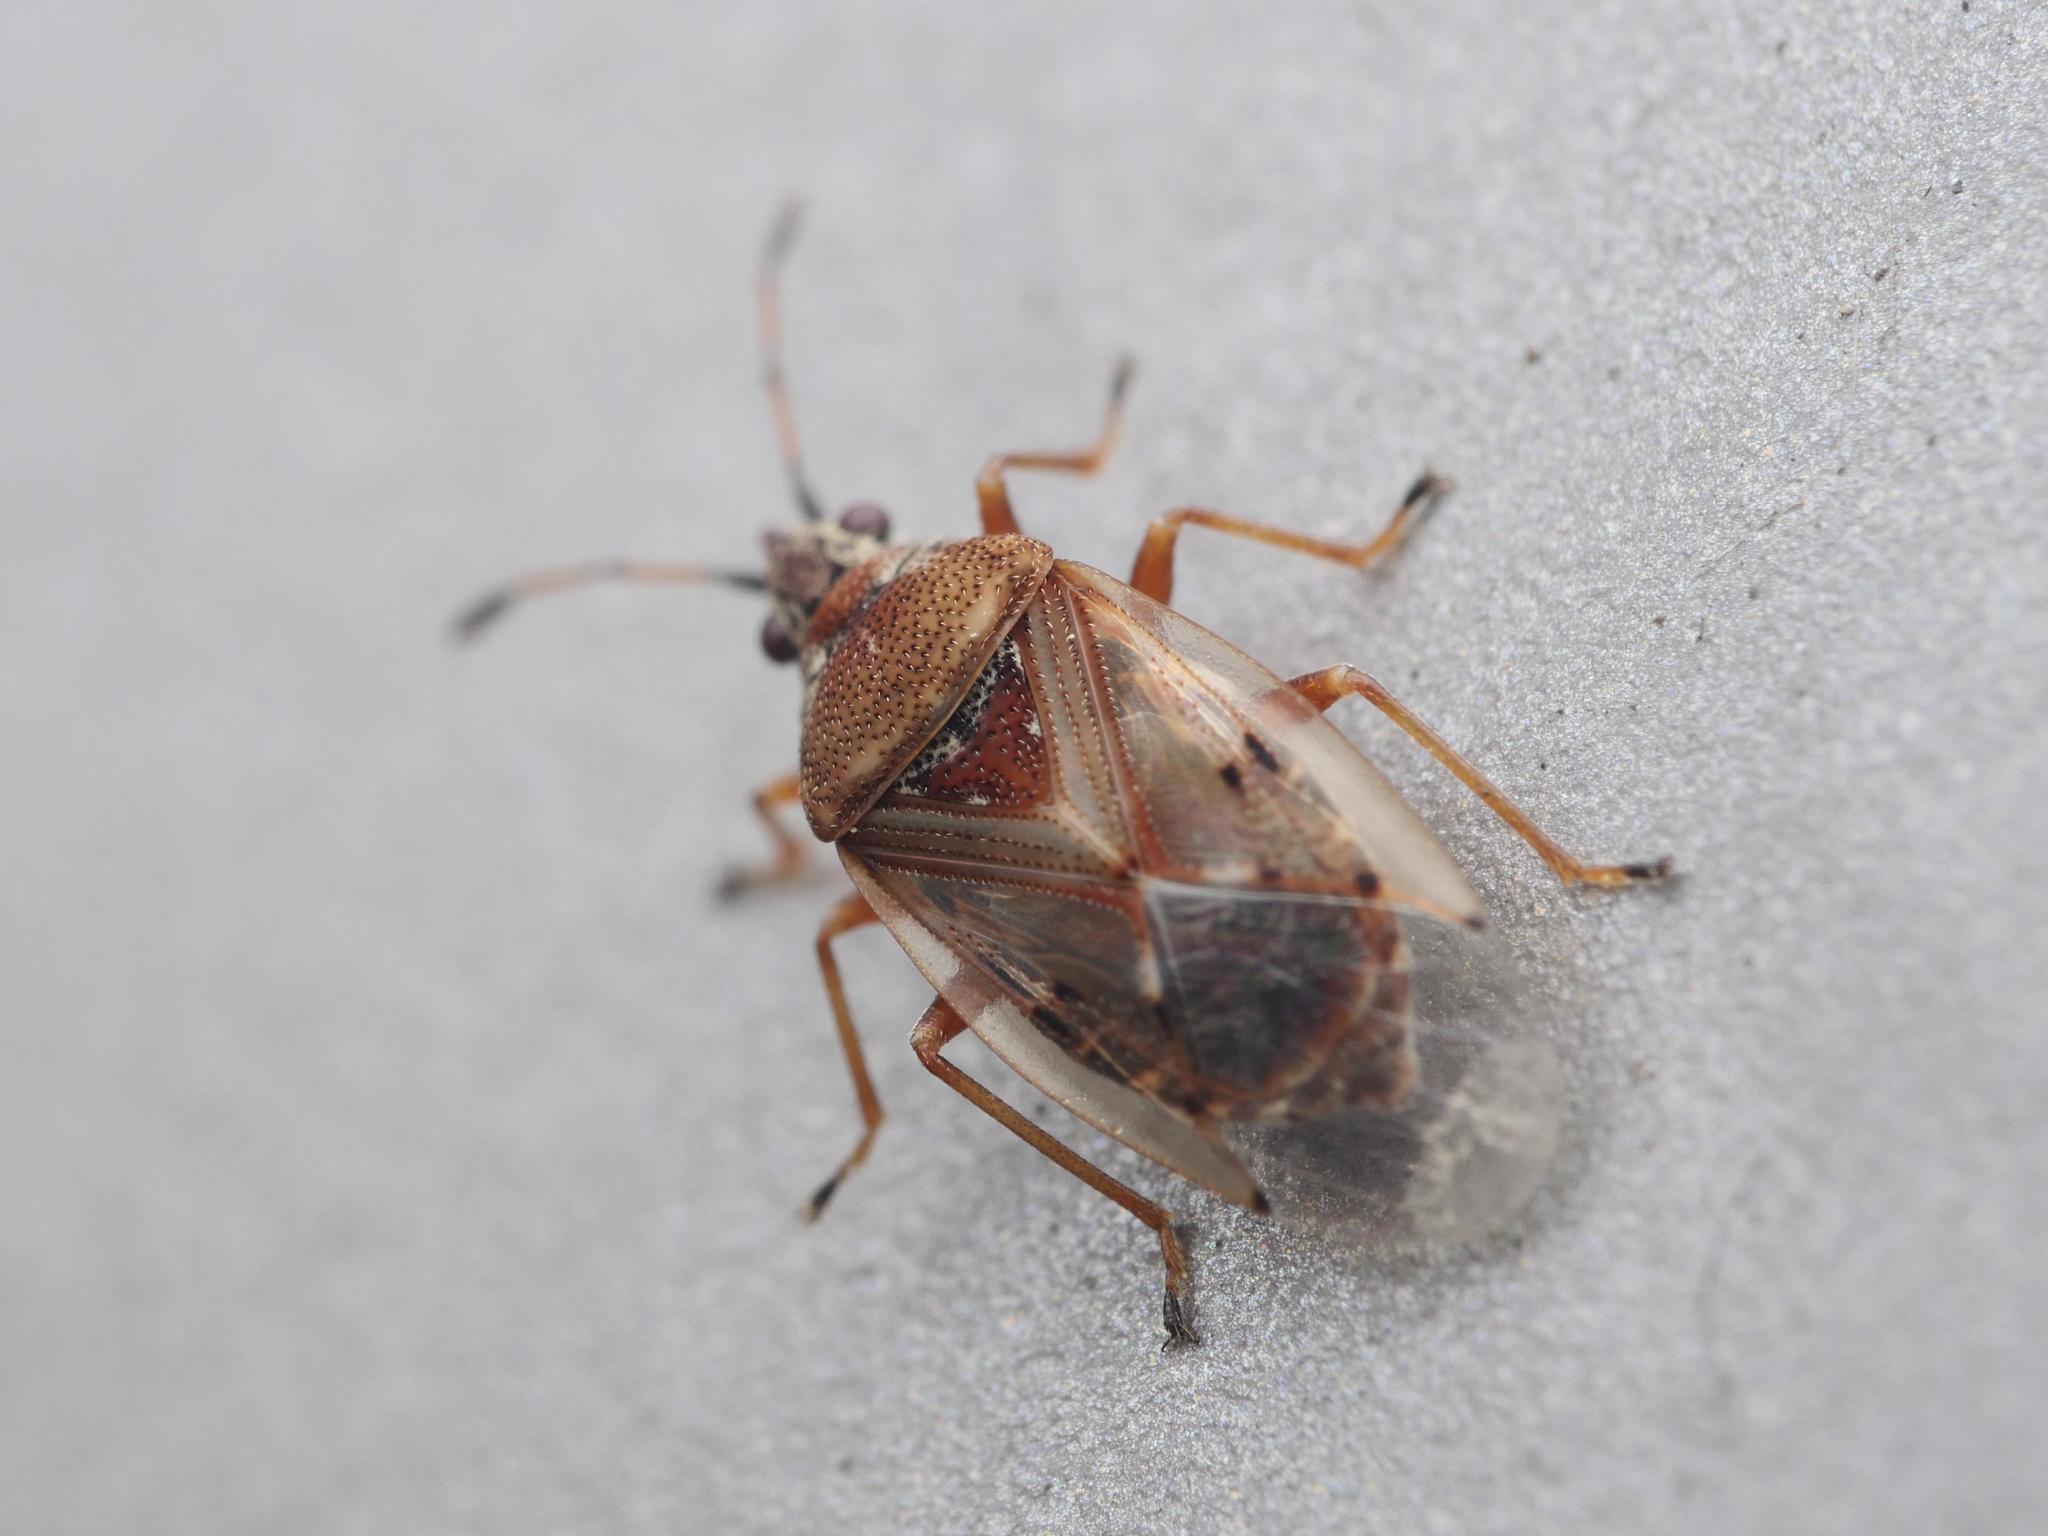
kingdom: Animalia
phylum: Arthropoda
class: Insecta
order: Hemiptera
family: Lygaeidae
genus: Kleidocerys
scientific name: Kleidocerys resedae
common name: Birch catkin bug
